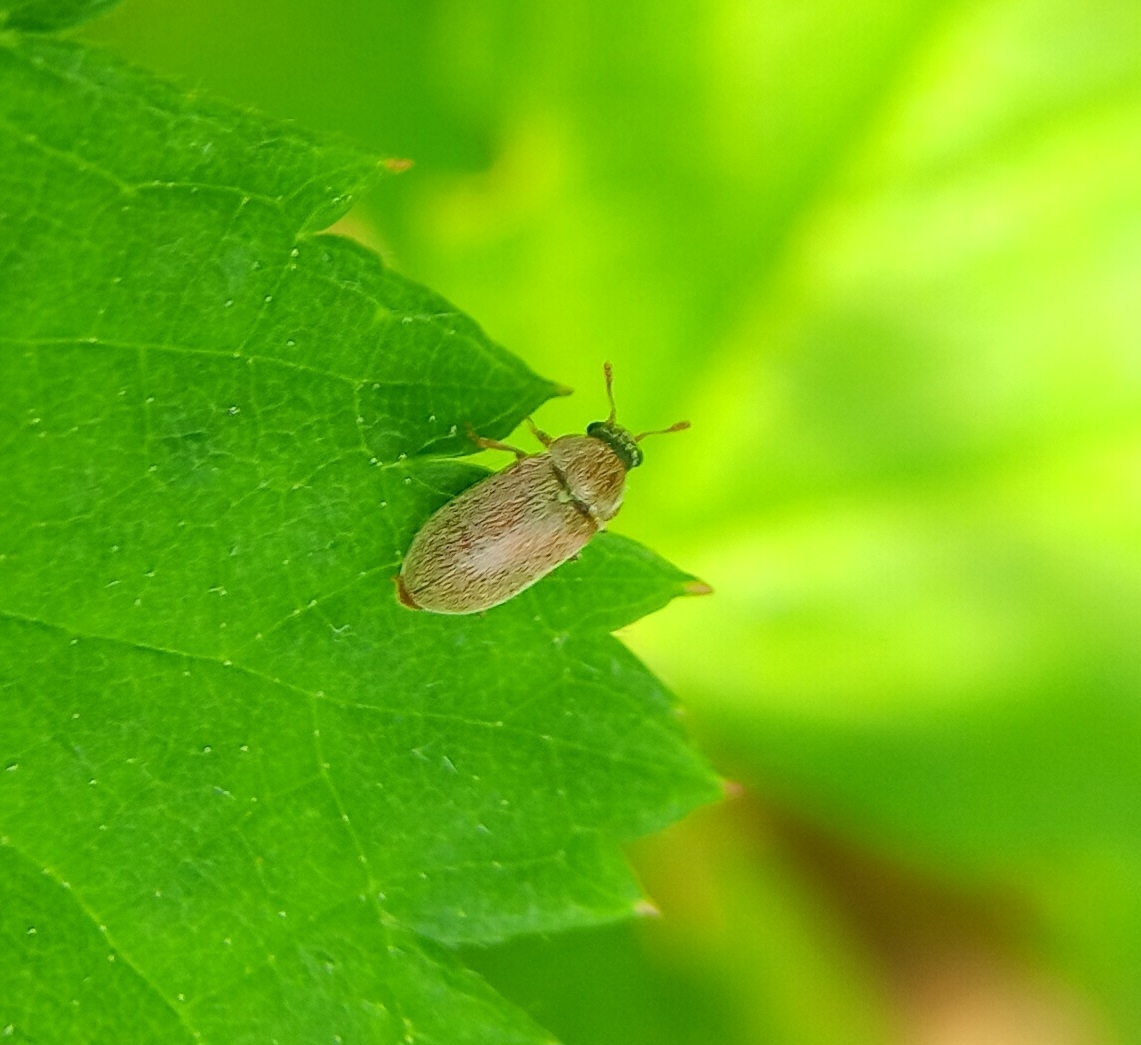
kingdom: Animalia
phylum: Arthropoda
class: Insecta
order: Coleoptera
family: Byturidae
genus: Byturus
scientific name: Byturus unicolor
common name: Raspberry fruitworm beetle
